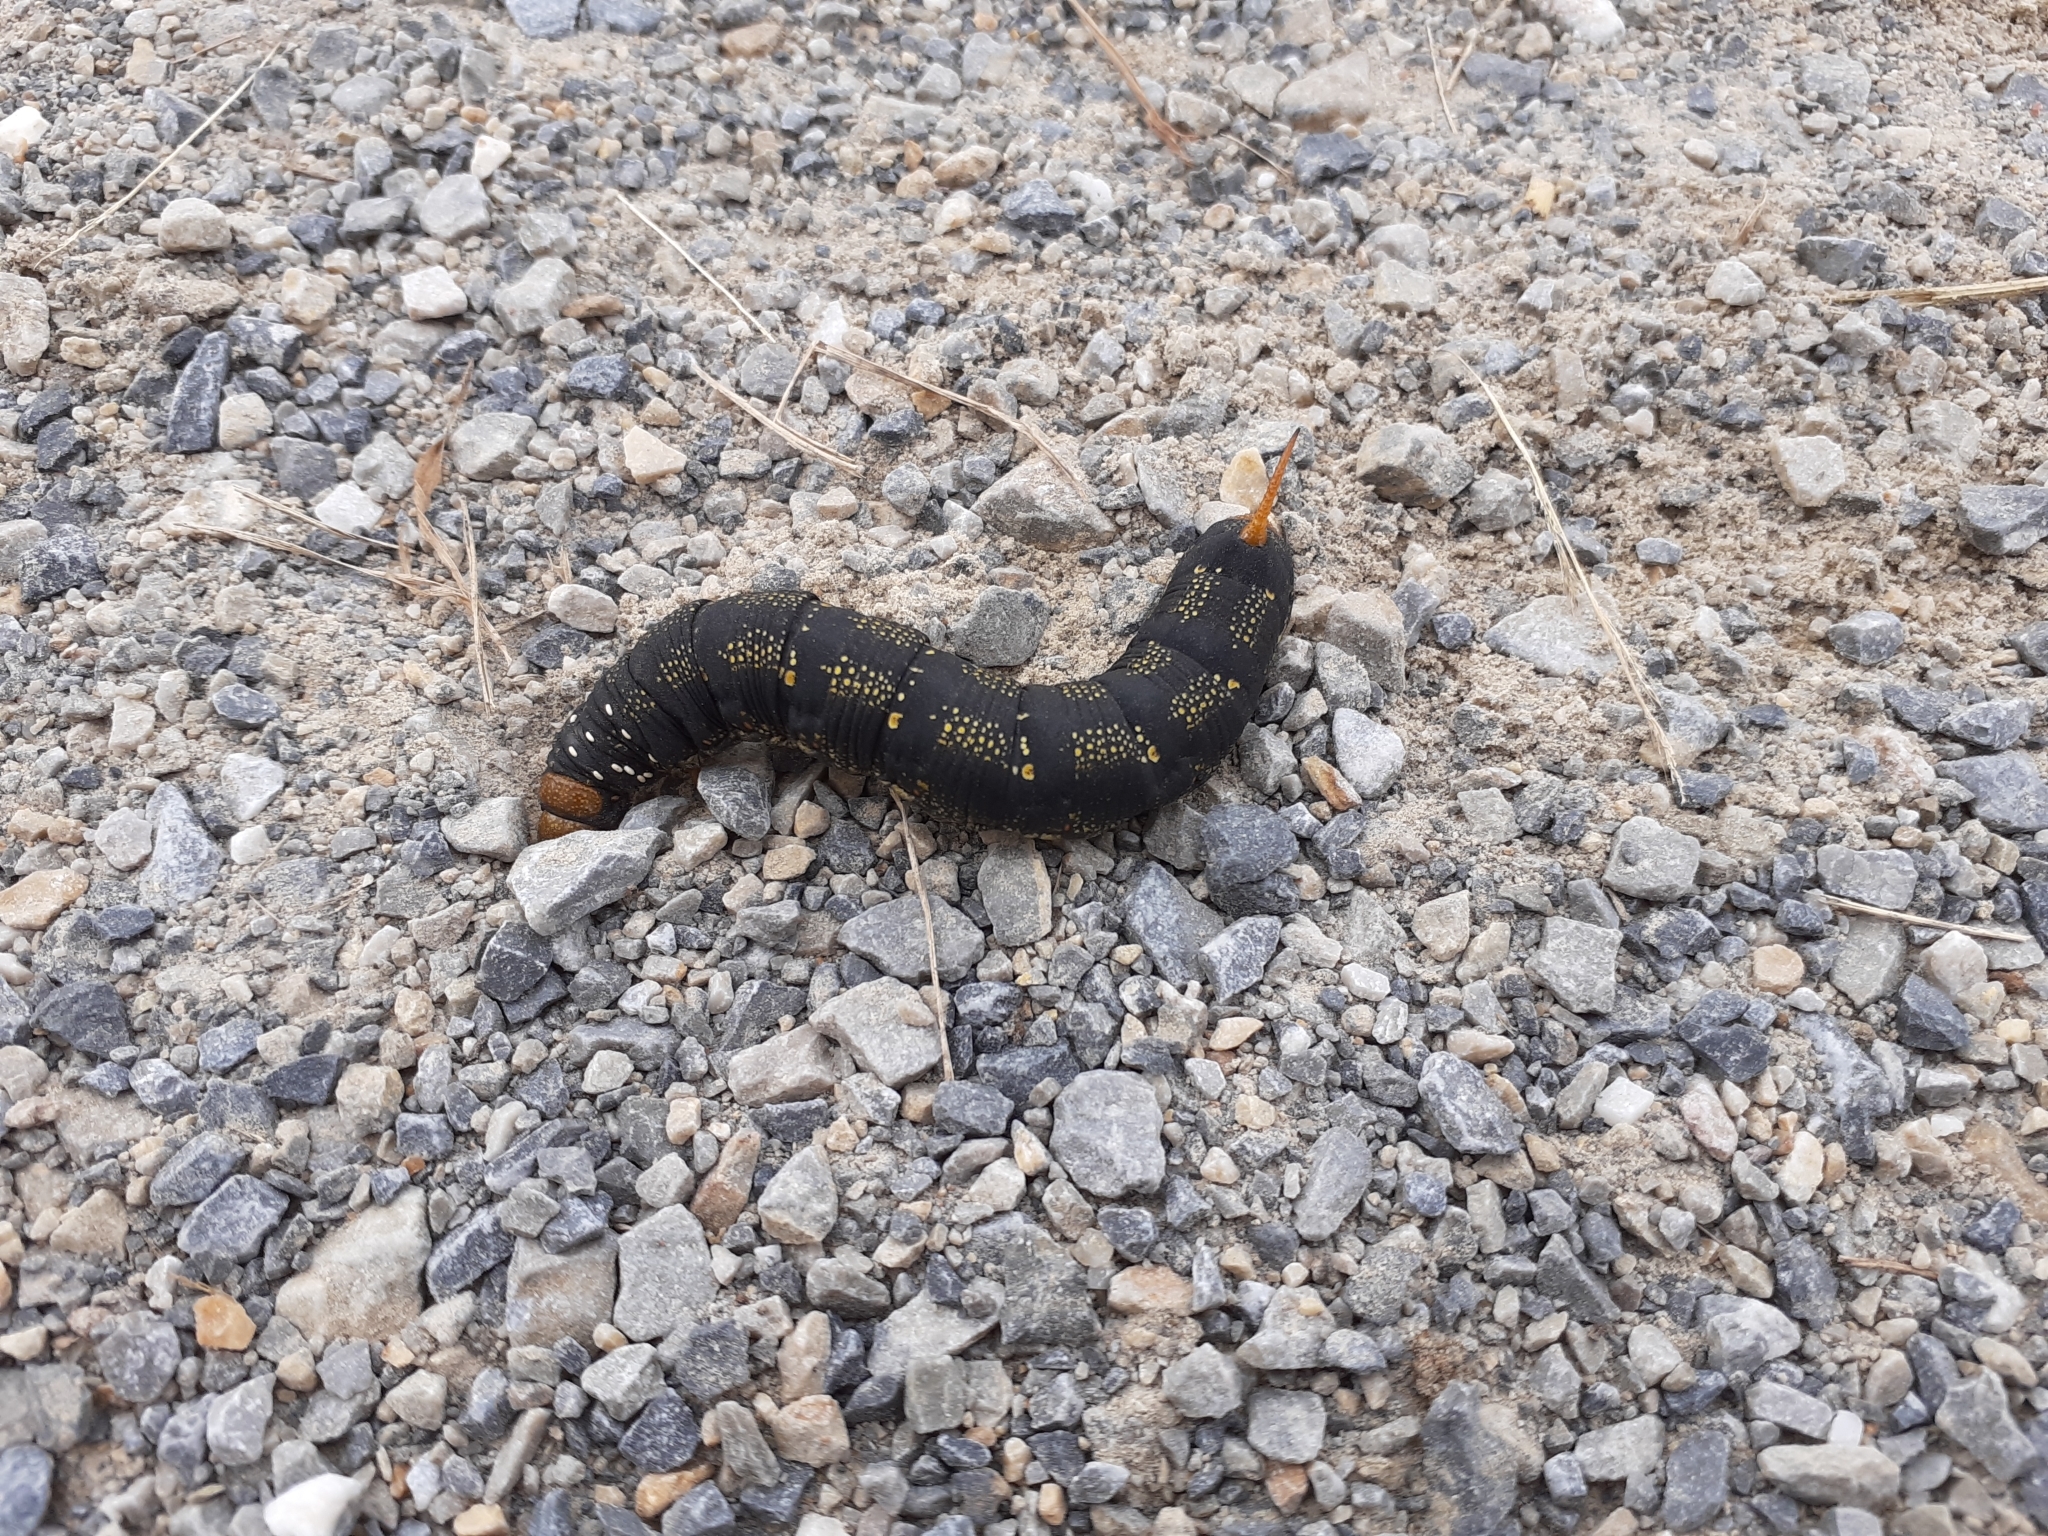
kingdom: Animalia
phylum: Arthropoda
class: Insecta
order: Lepidoptera
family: Sphingidae
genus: Hyles
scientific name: Hyles lineata
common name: White-lined sphinx
